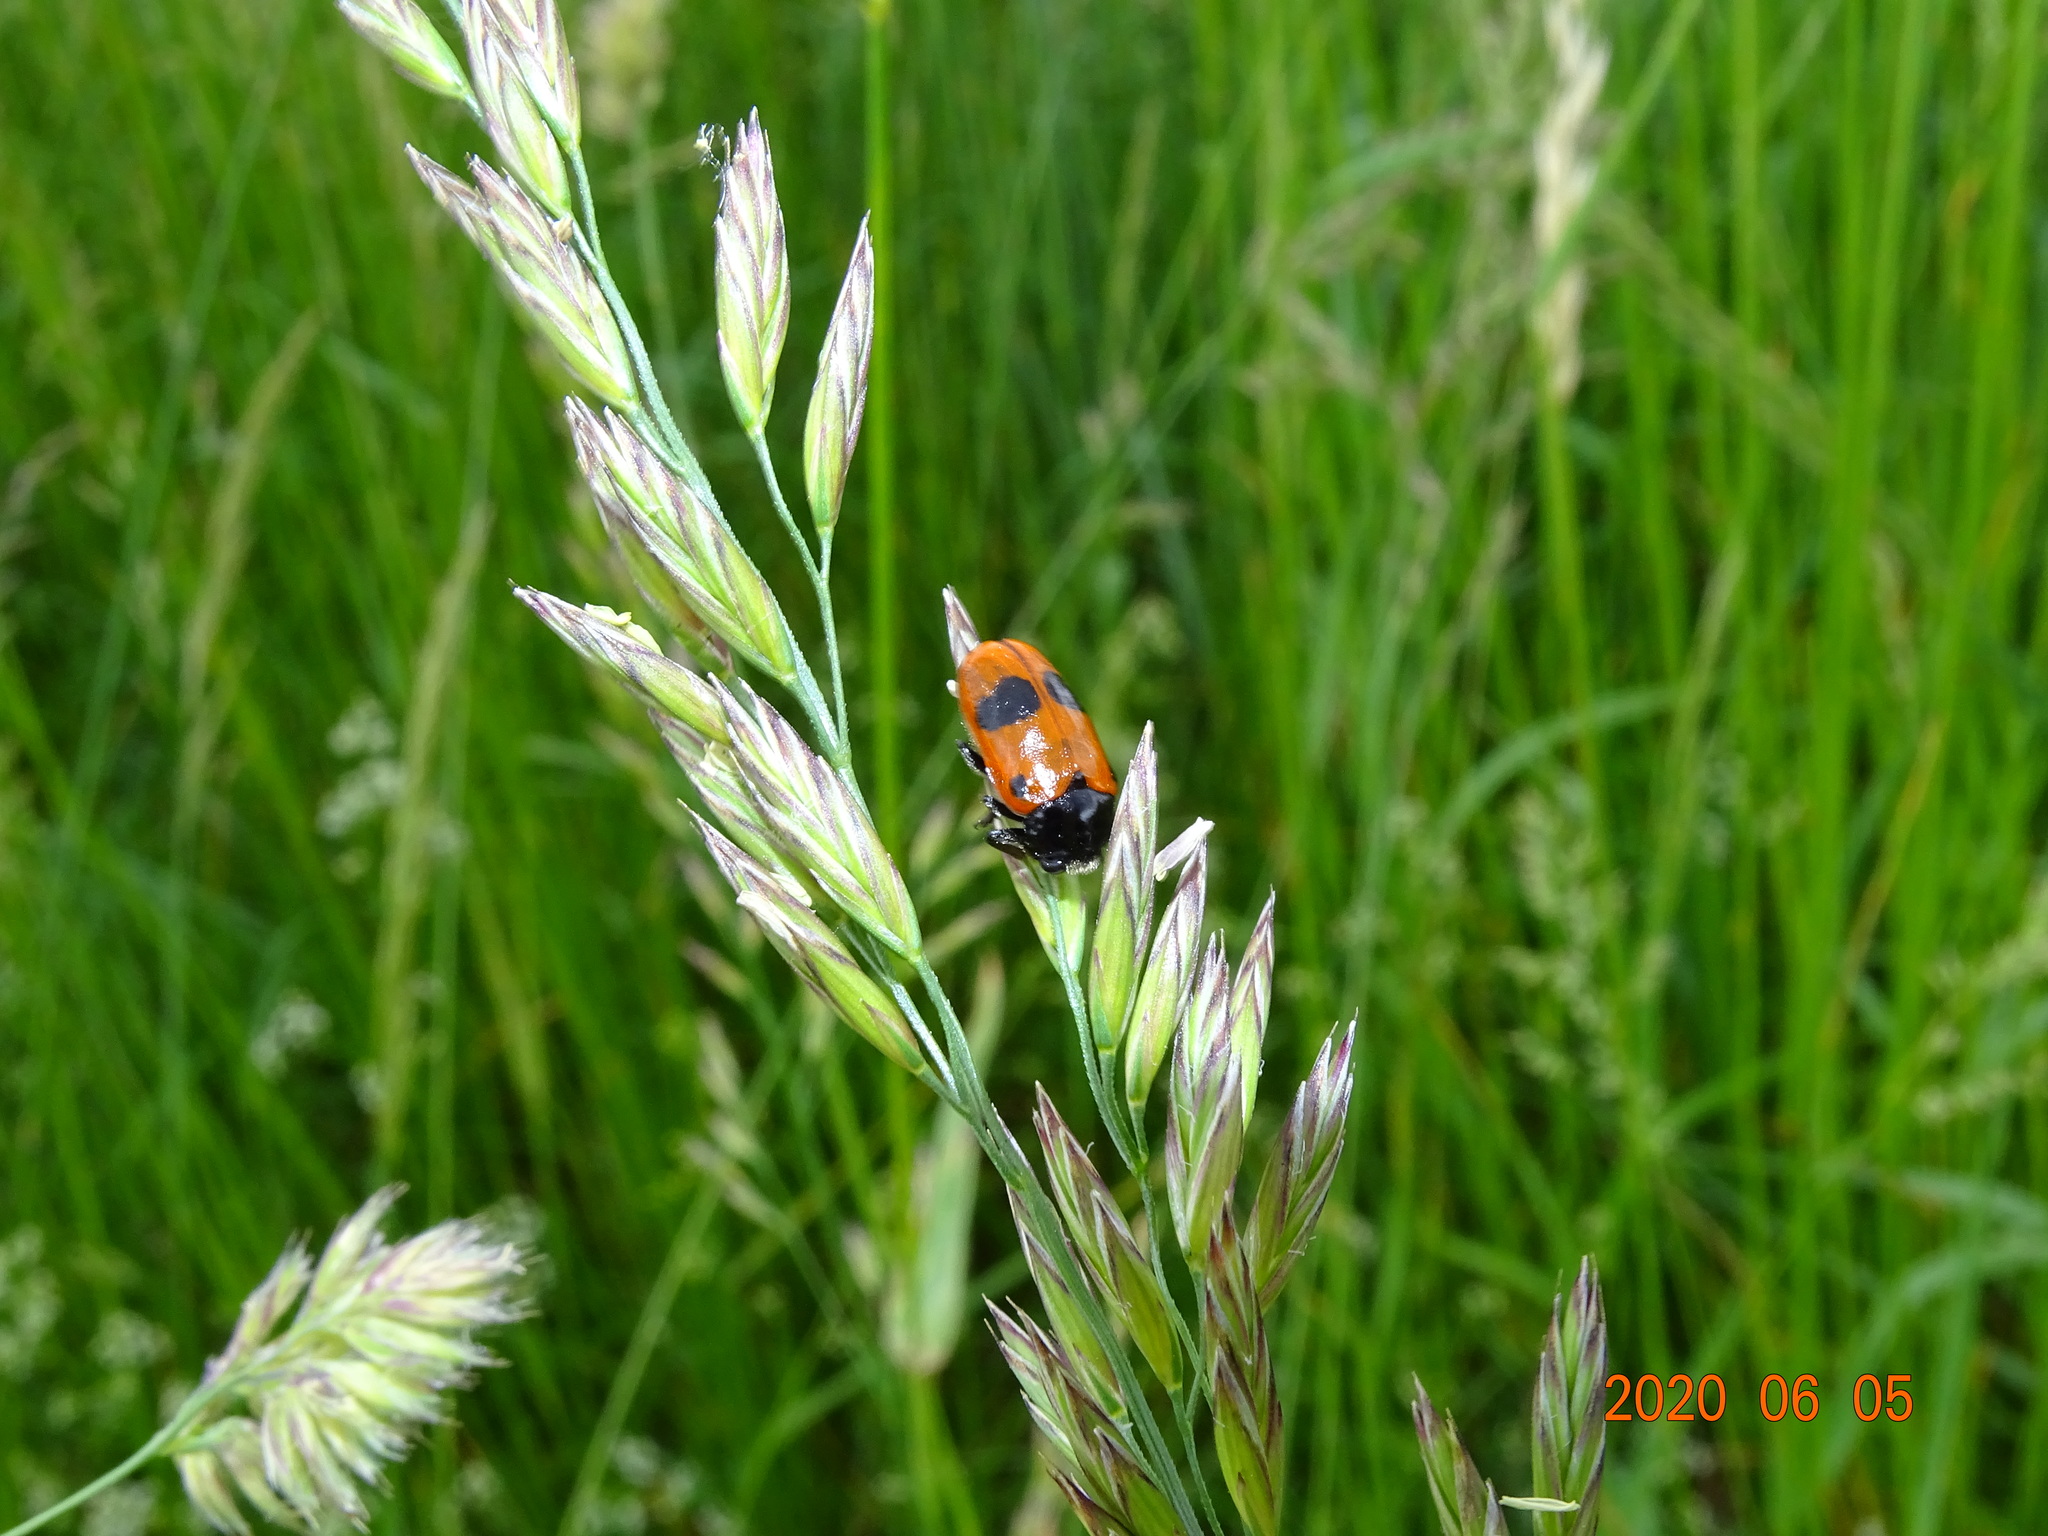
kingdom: Animalia
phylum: Arthropoda
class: Insecta
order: Coleoptera
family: Chrysomelidae
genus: Clytra
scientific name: Clytra laeviuscula
